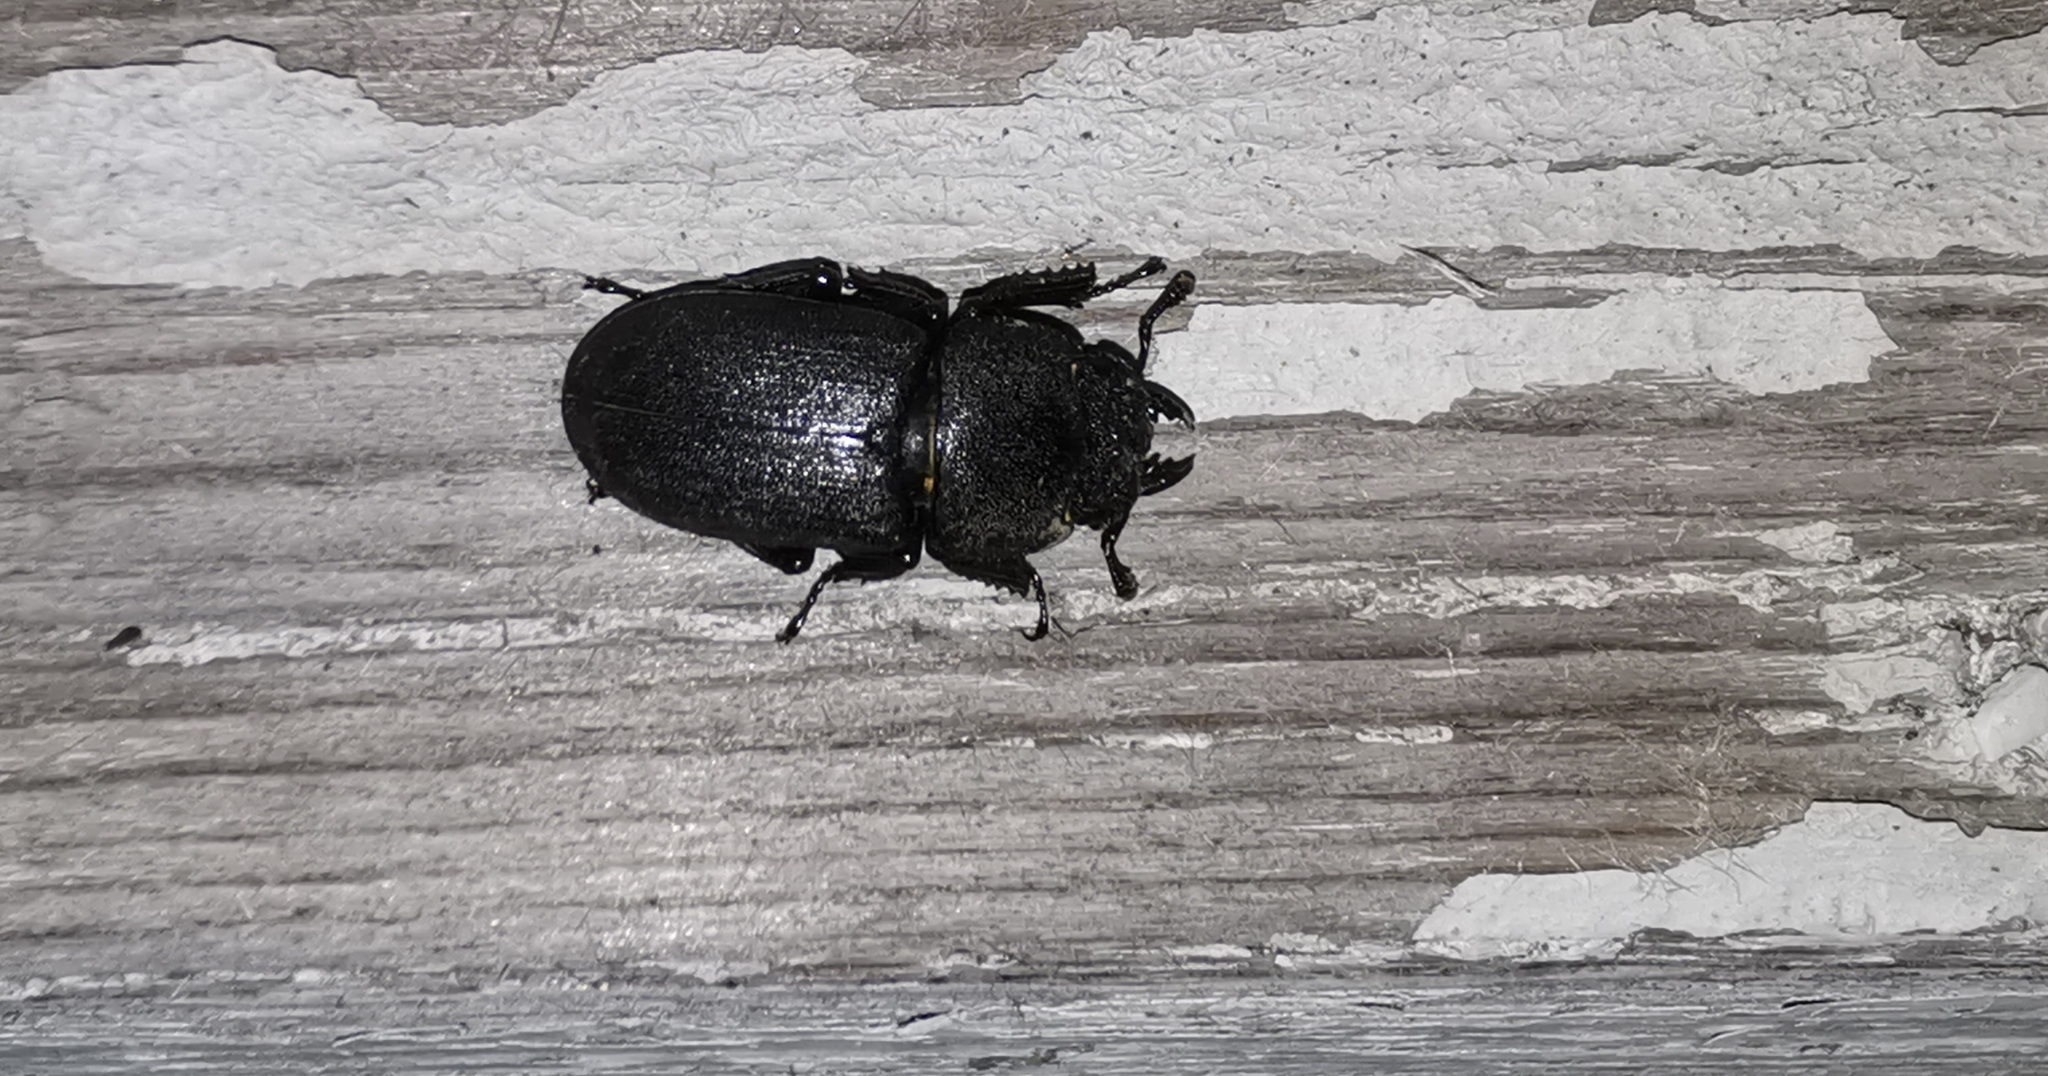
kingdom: Animalia
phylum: Arthropoda
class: Insecta
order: Coleoptera
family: Lucanidae
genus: Dorcus
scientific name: Dorcus parallelipipedus
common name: Lesser stag beetle
